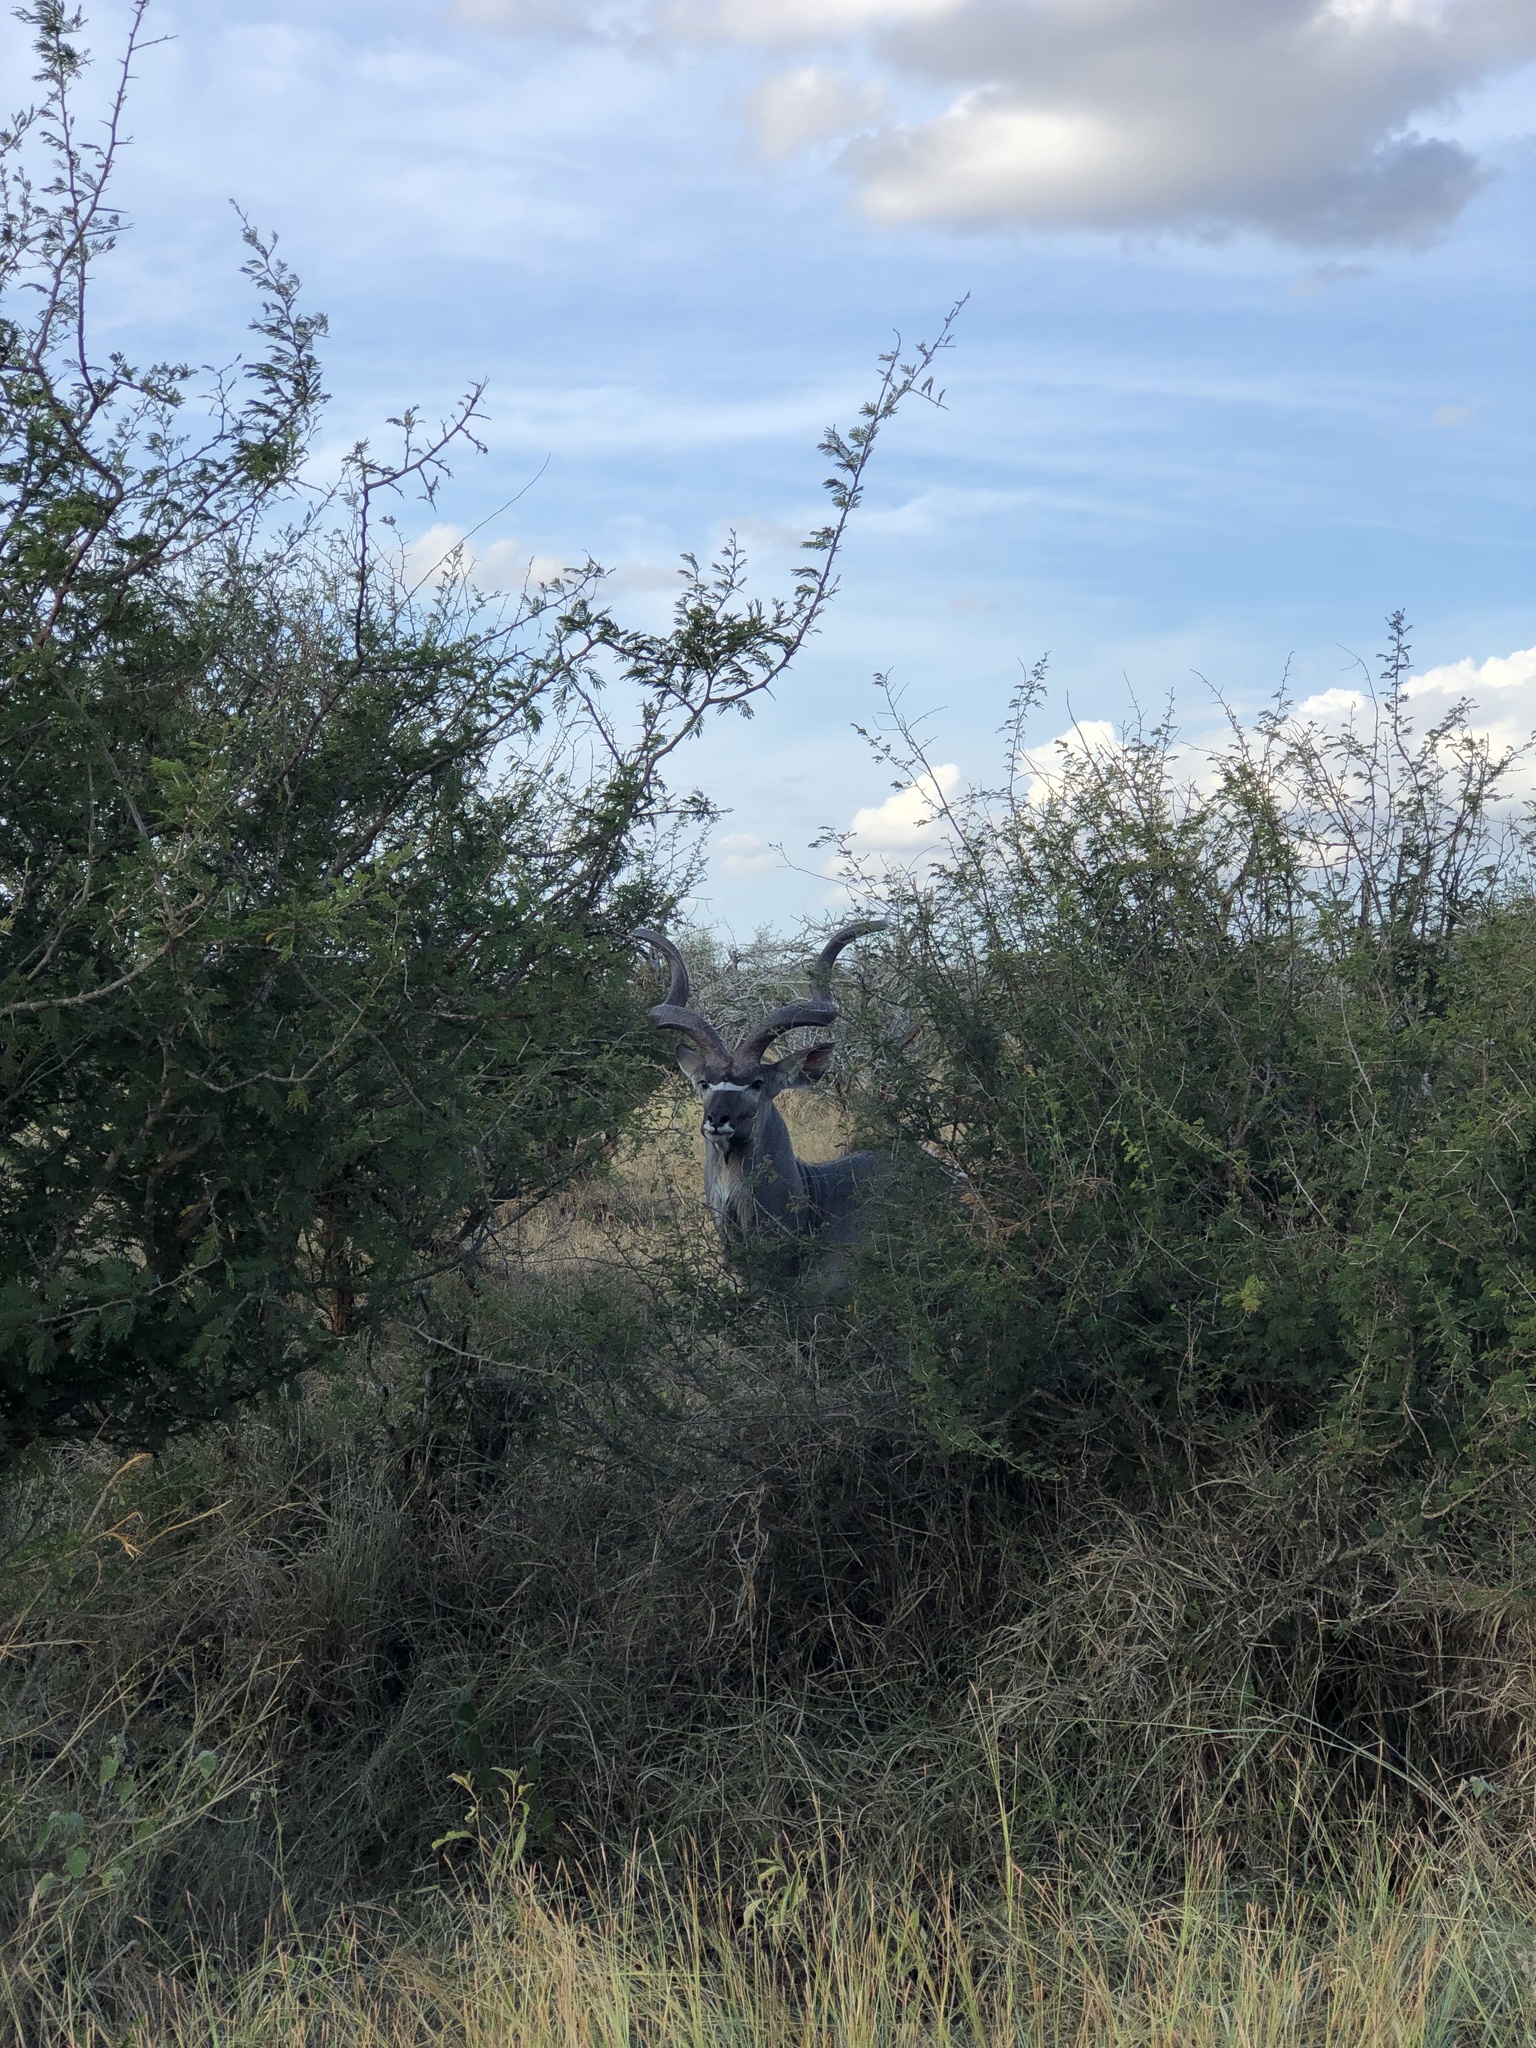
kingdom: Animalia
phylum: Chordata
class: Mammalia
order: Artiodactyla
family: Bovidae
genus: Tragelaphus
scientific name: Tragelaphus strepsiceros
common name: Greater kudu
